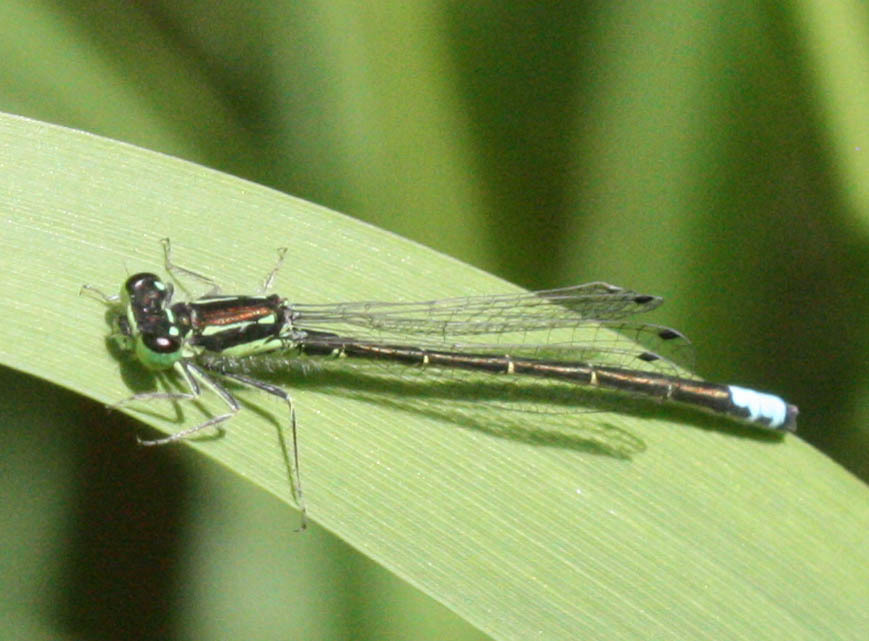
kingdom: Animalia
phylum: Arthropoda
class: Insecta
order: Odonata
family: Coenagrionidae
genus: Ischnura
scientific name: Ischnura verticalis
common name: Eastern forktail
